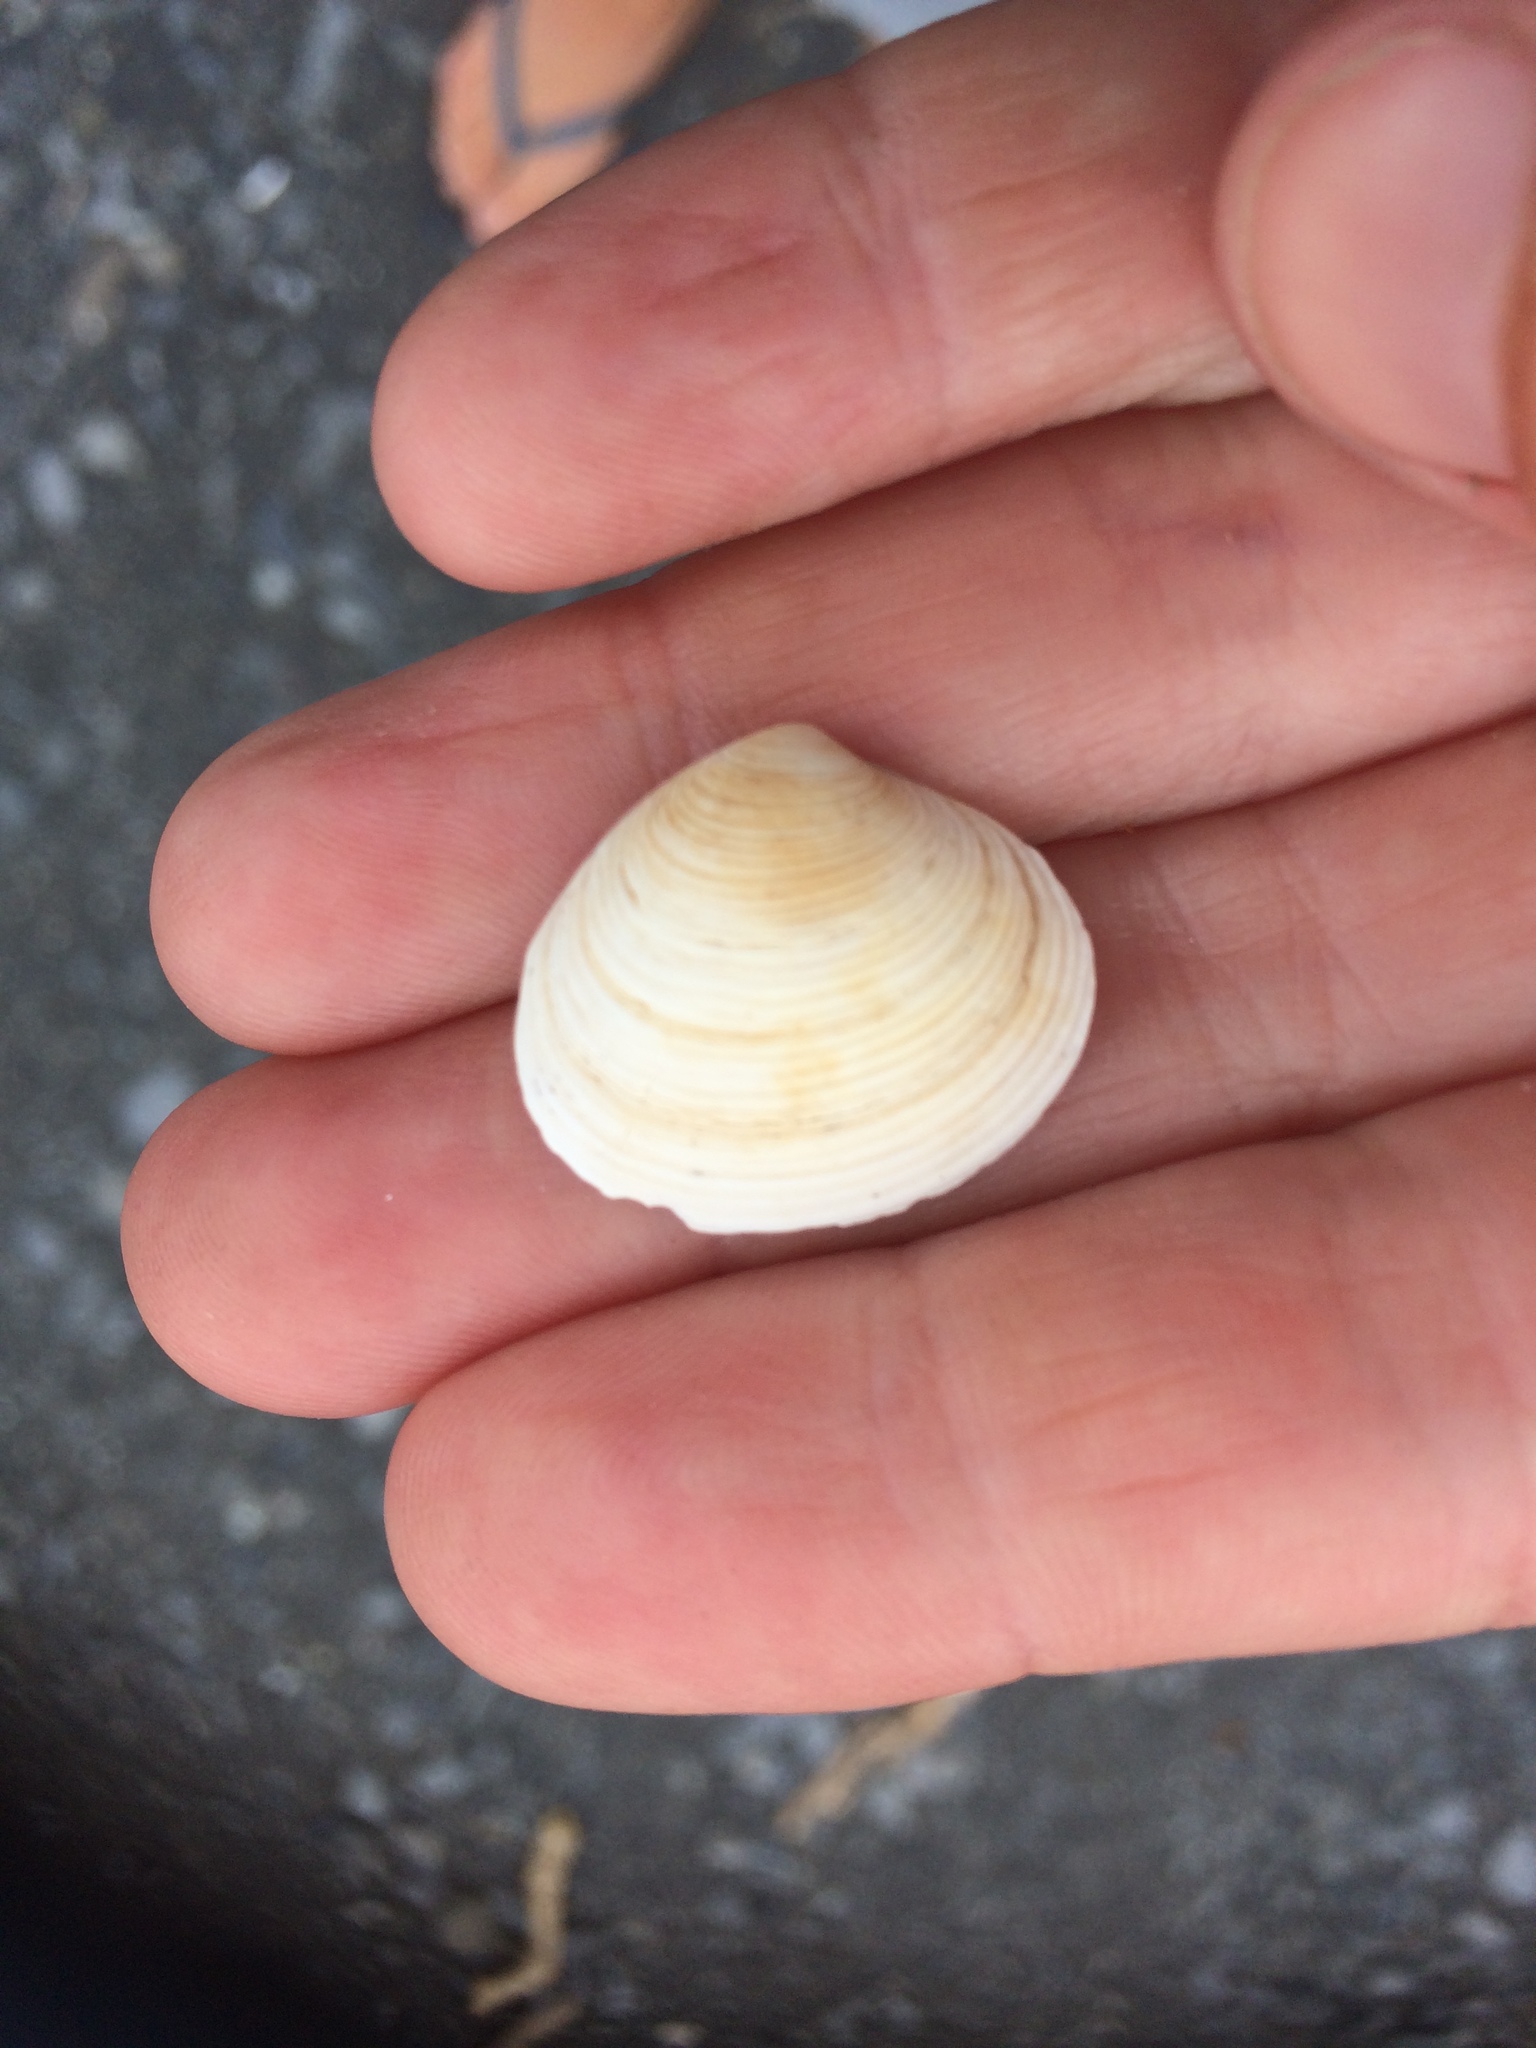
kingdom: Animalia
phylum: Mollusca
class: Bivalvia
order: Venerida
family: Veneridae
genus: Tawera
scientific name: Tawera spissa
